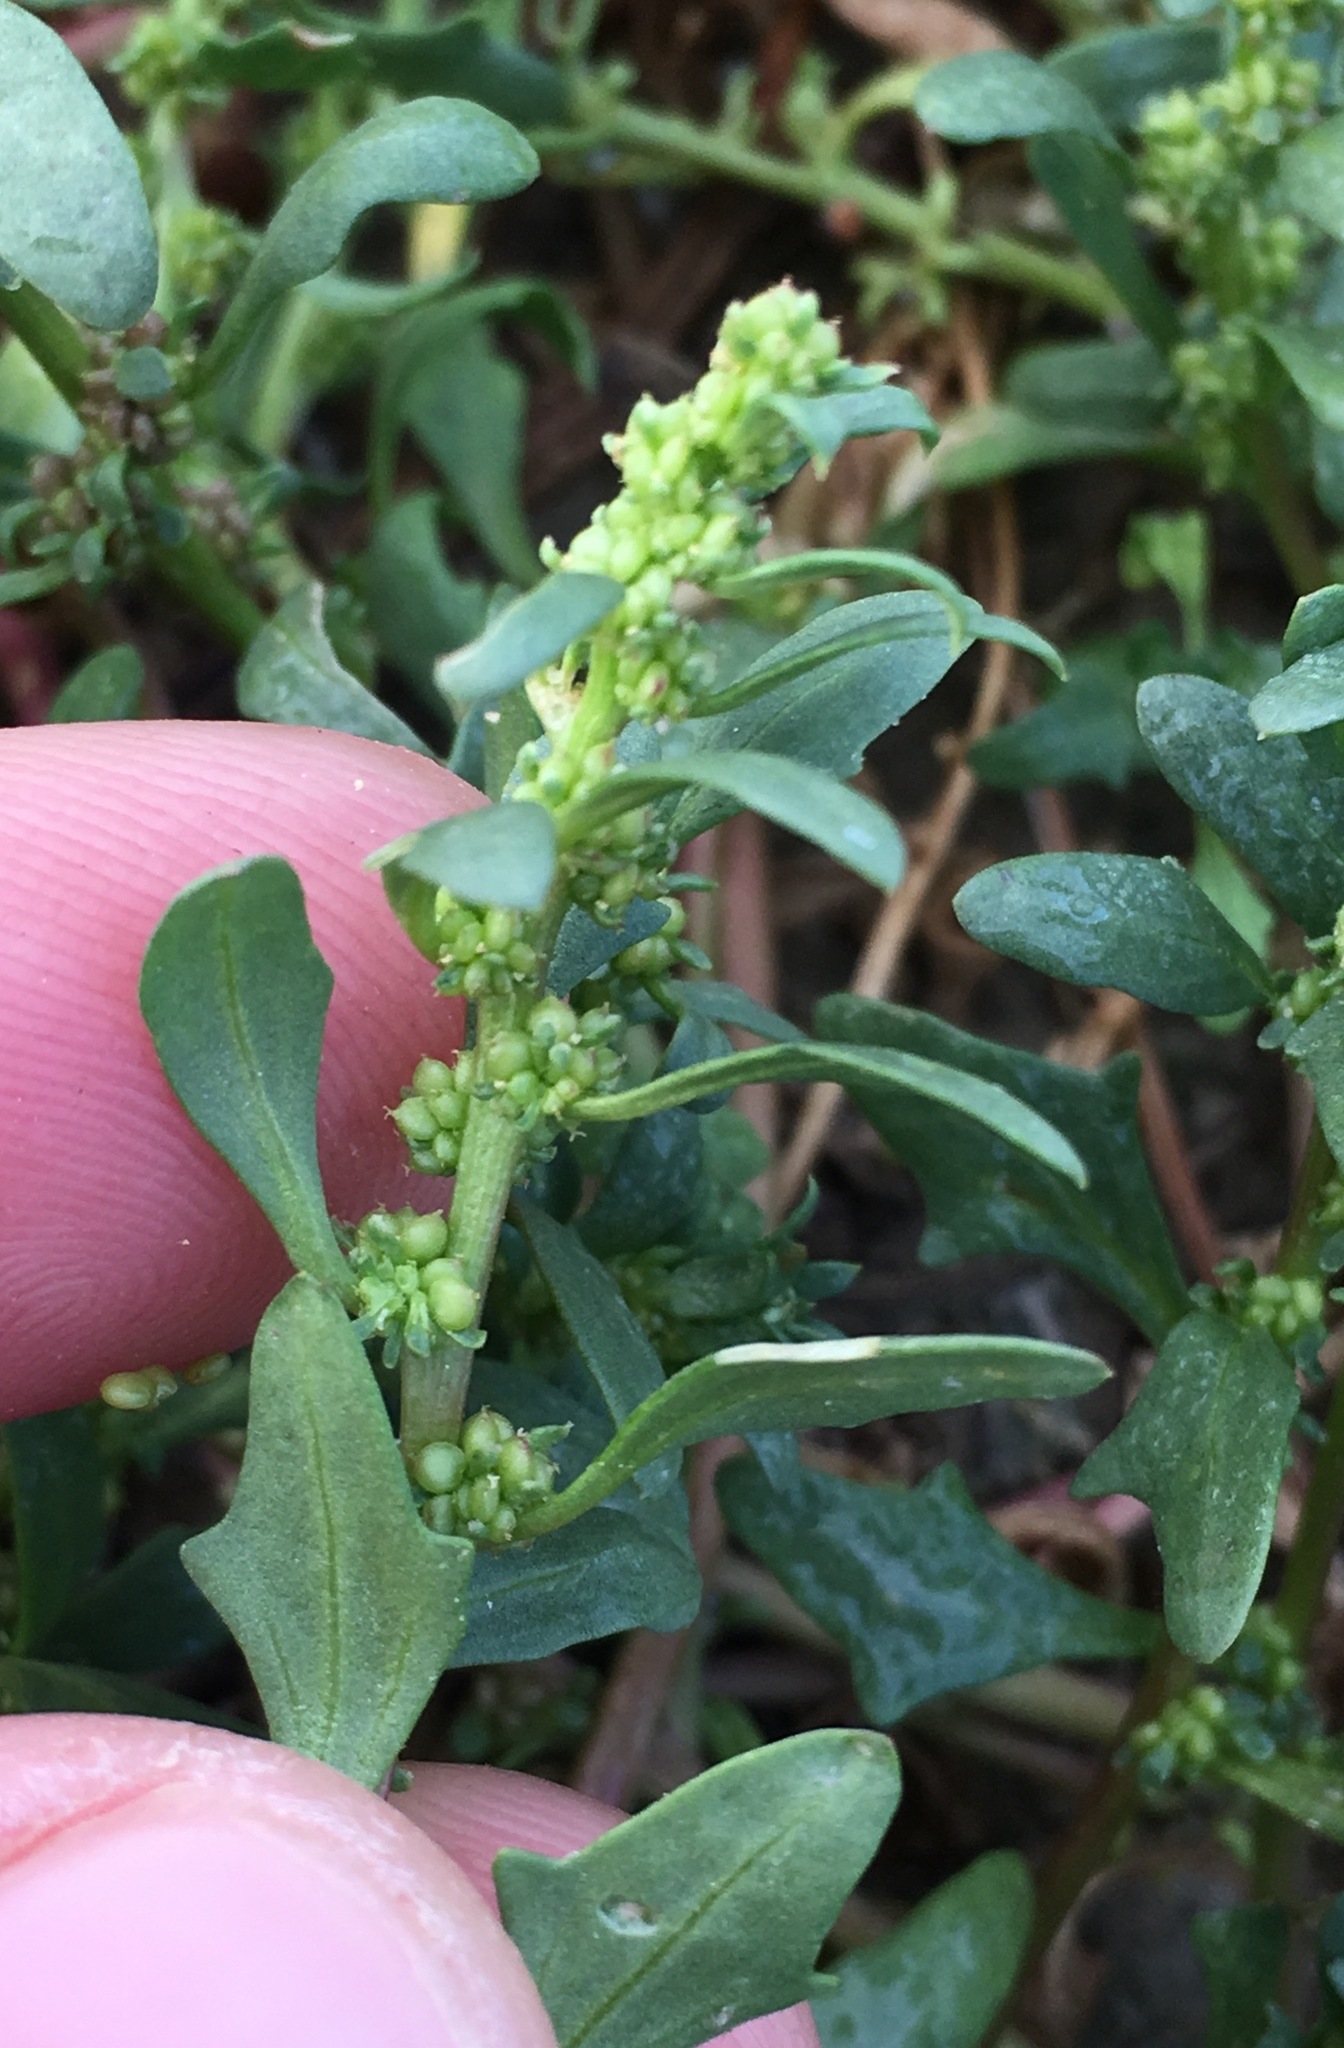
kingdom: Plantae
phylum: Tracheophyta
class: Magnoliopsida
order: Caryophyllales
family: Amaranthaceae
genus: Blitum
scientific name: Blitum nuttallianum
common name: Poverty-weed
